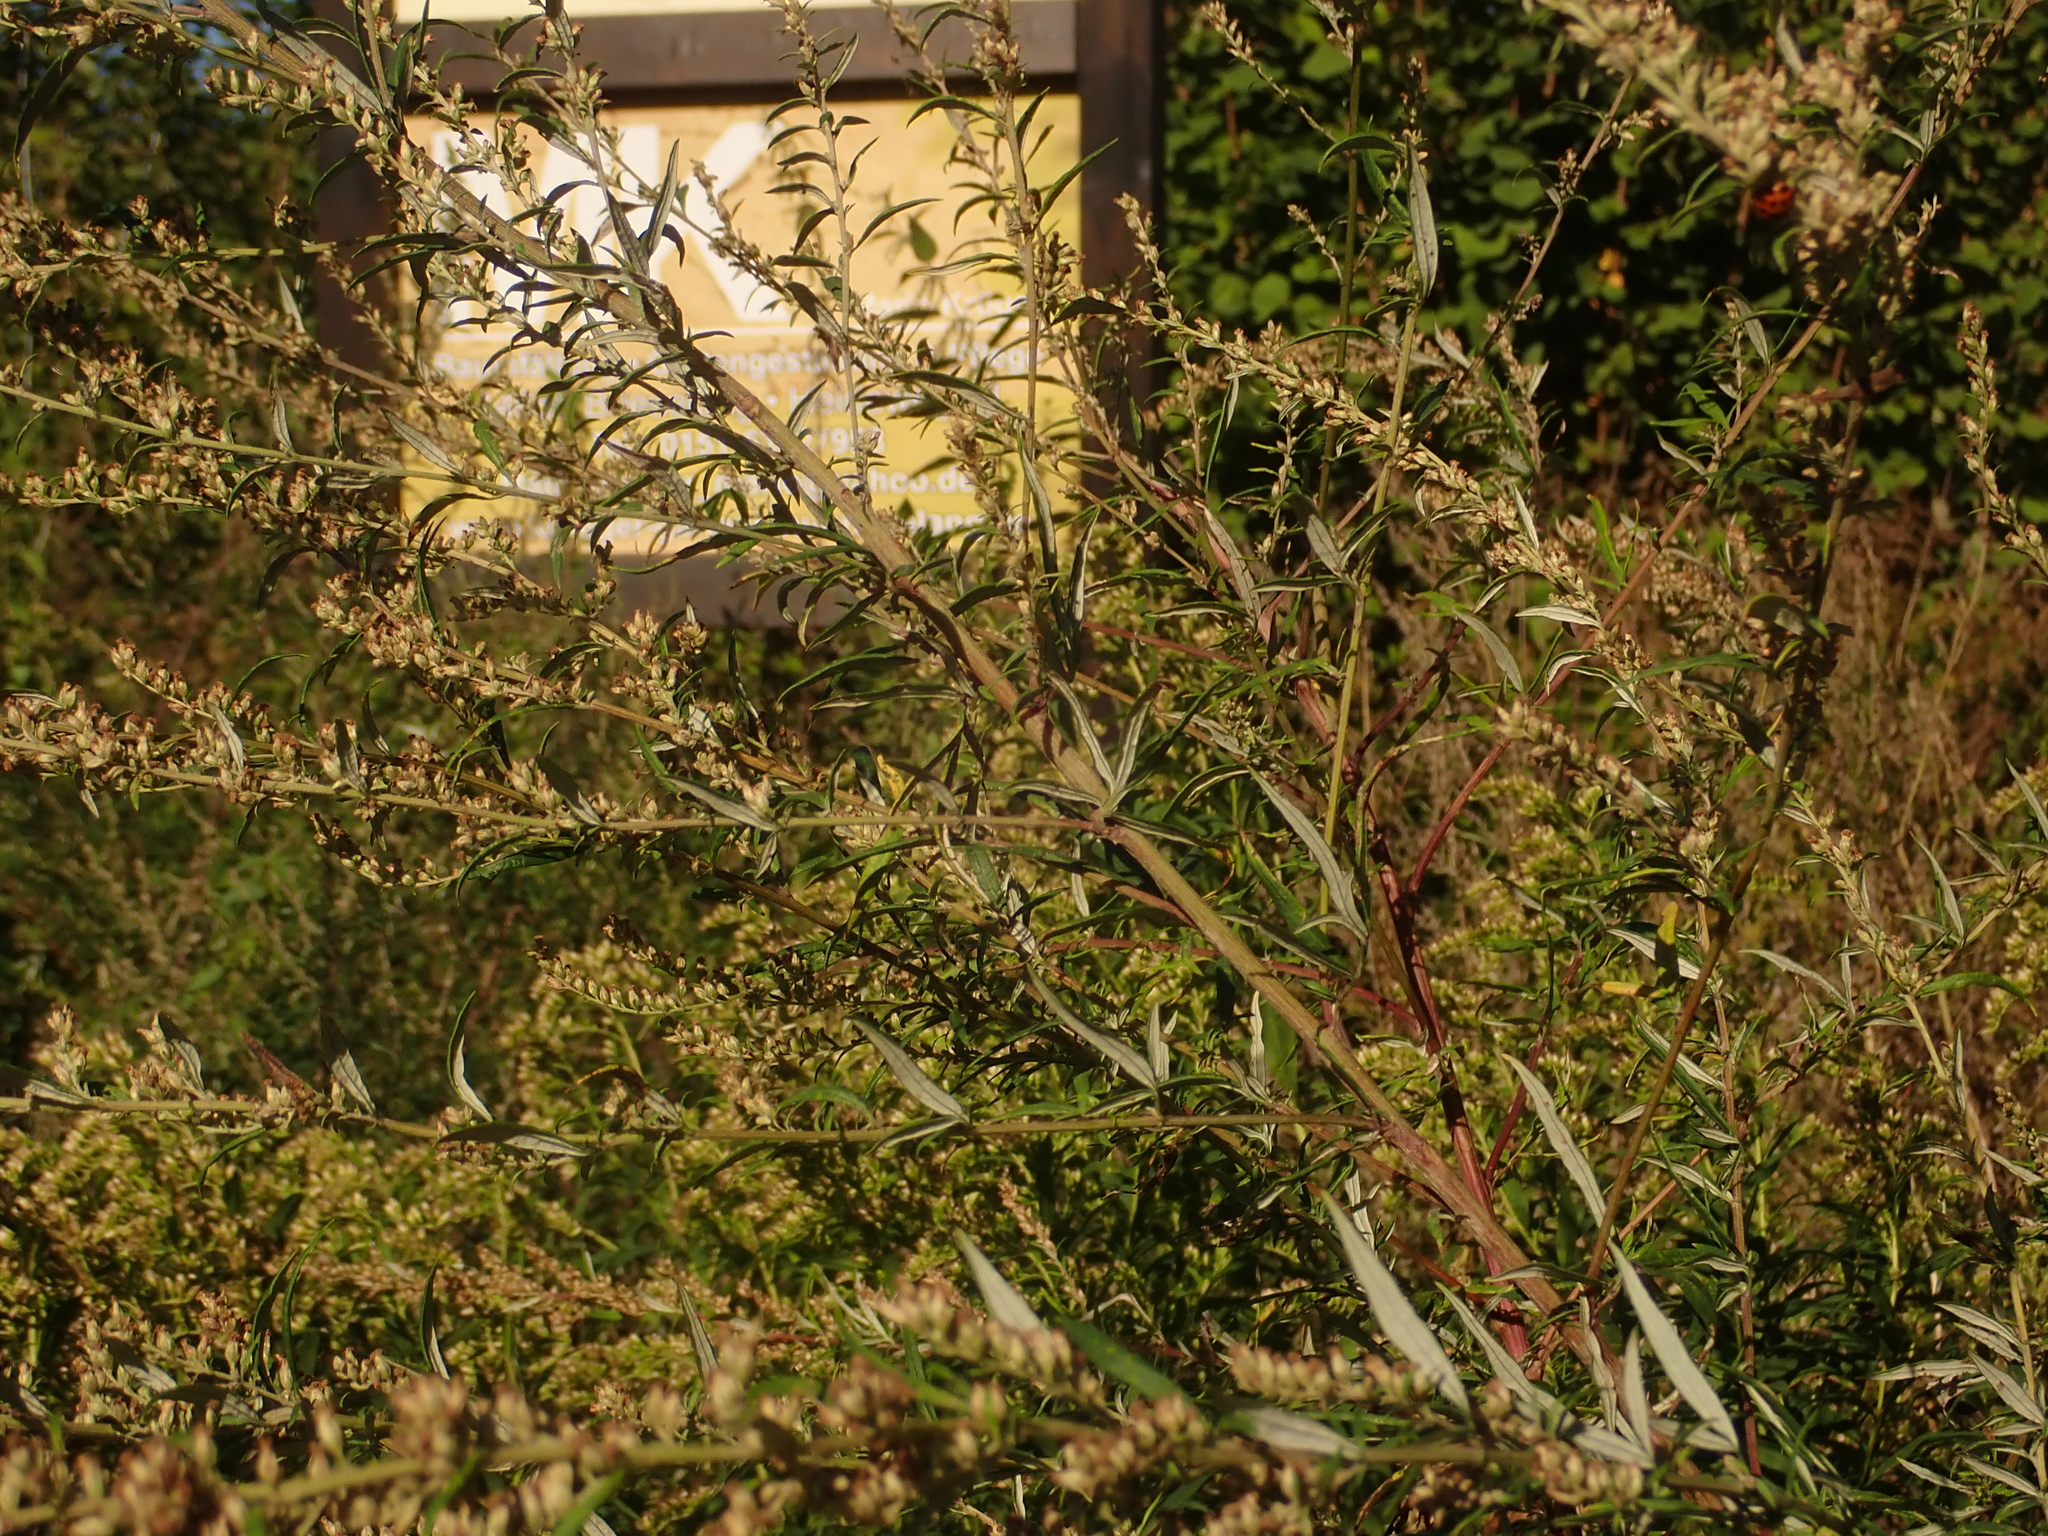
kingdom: Plantae
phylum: Tracheophyta
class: Magnoliopsida
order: Asterales
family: Asteraceae
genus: Artemisia
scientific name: Artemisia vulgaris
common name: Mugwort
